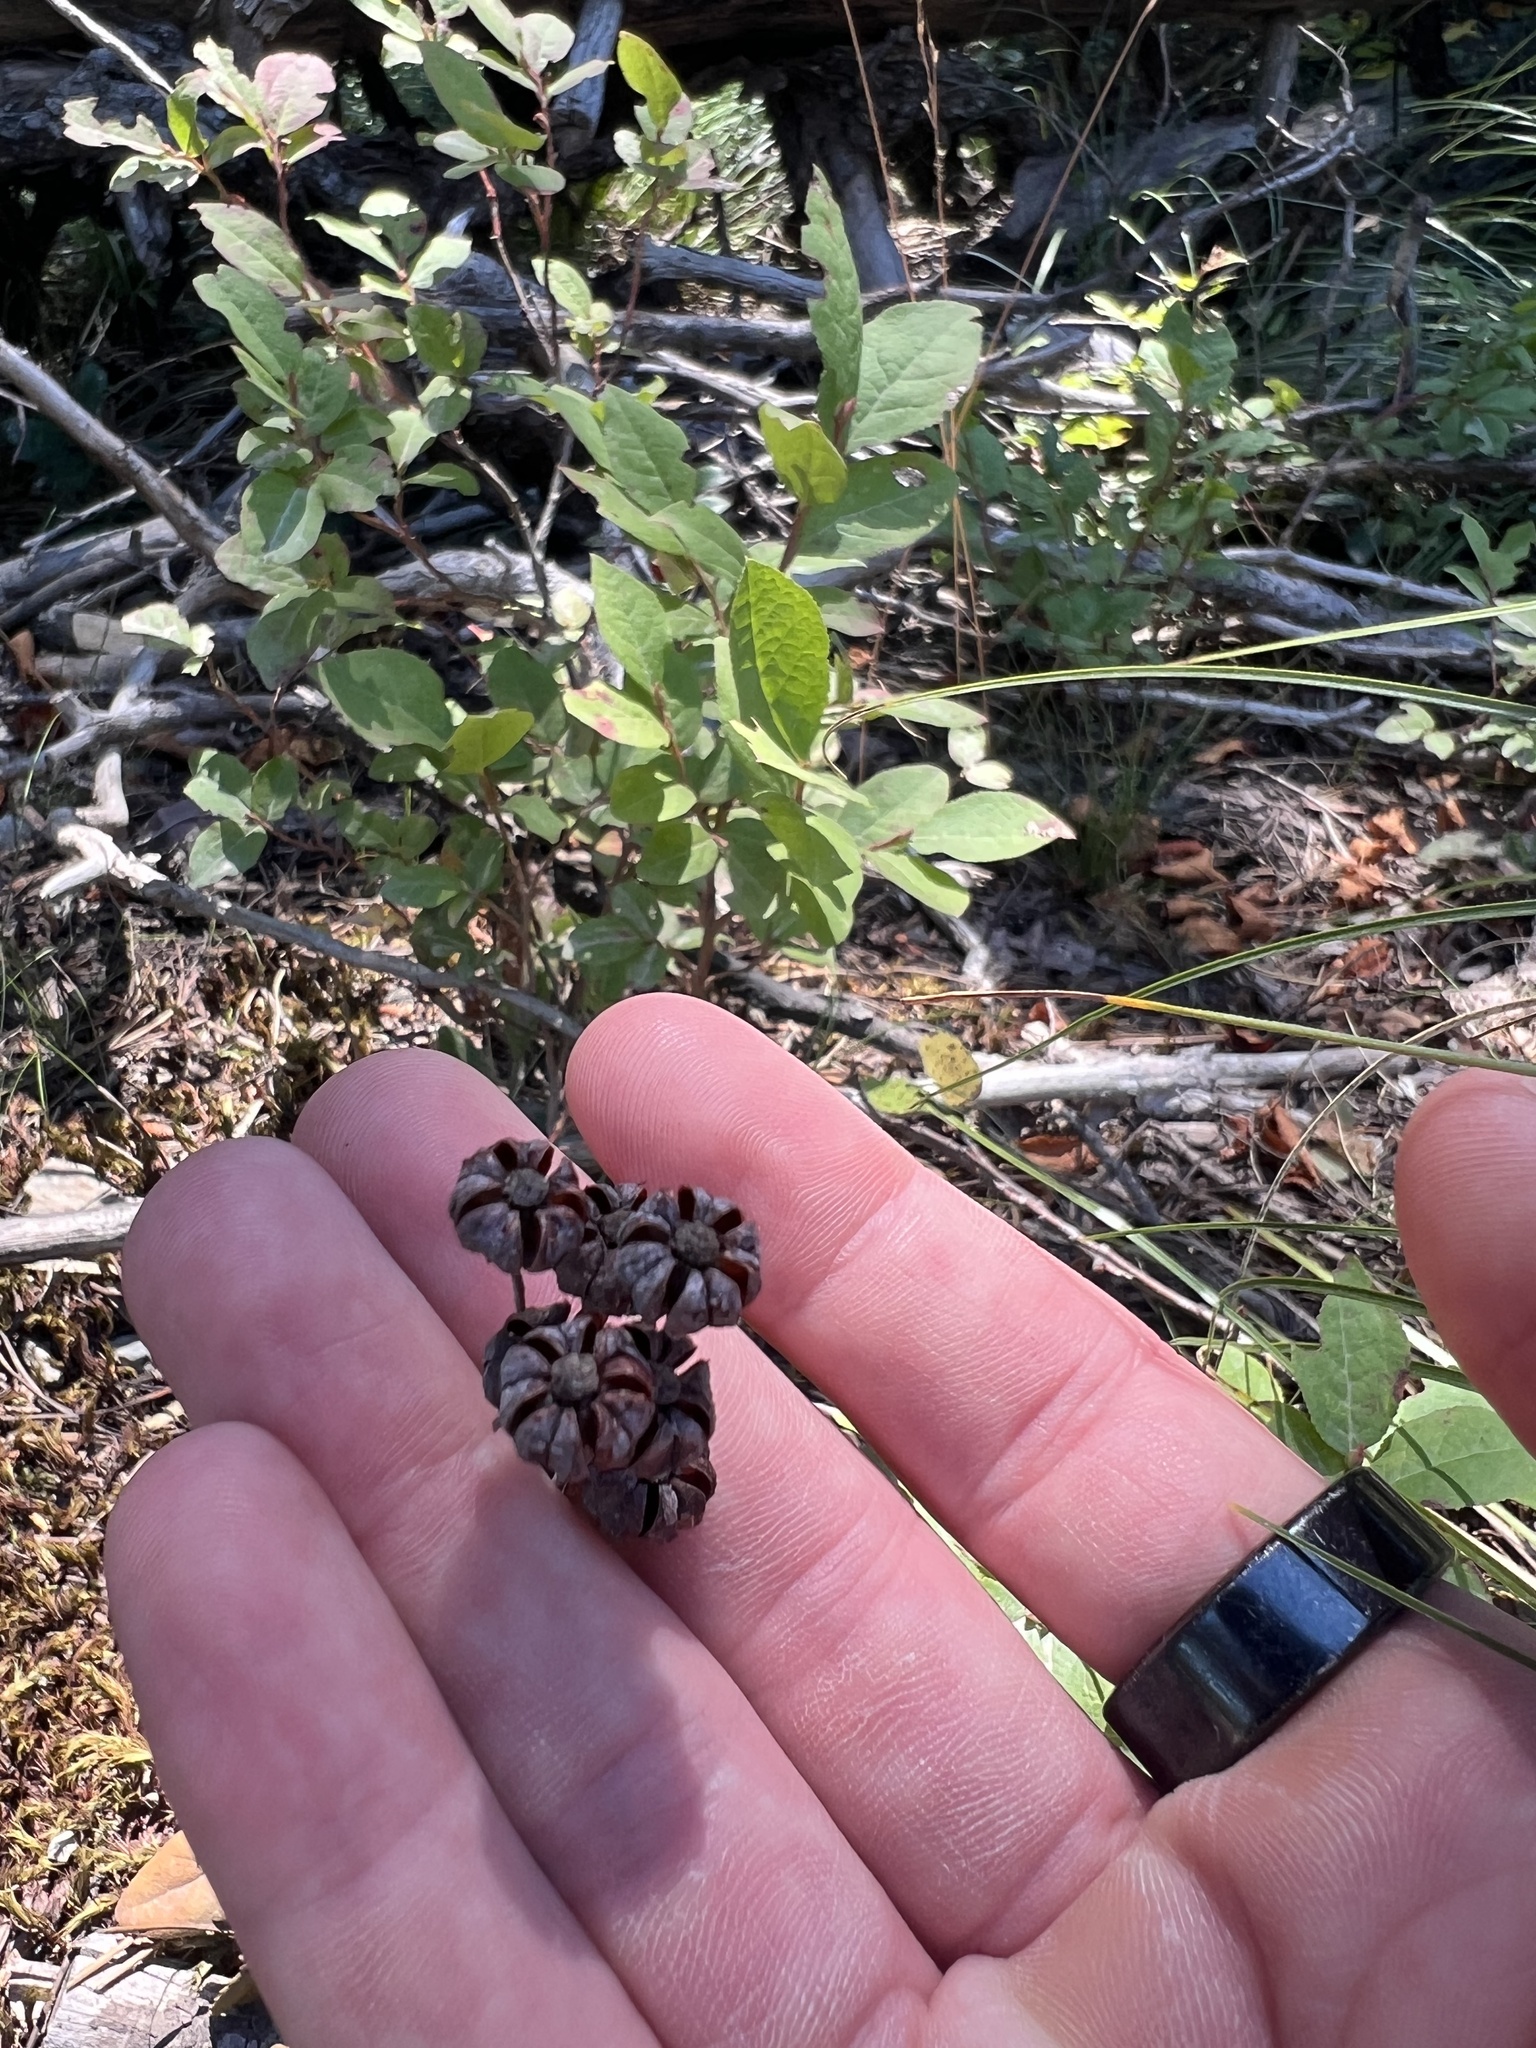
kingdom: Plantae
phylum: Tracheophyta
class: Magnoliopsida
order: Ericales
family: Ericaceae
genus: Chimaphila
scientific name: Chimaphila umbellata
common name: Pipsissewa
